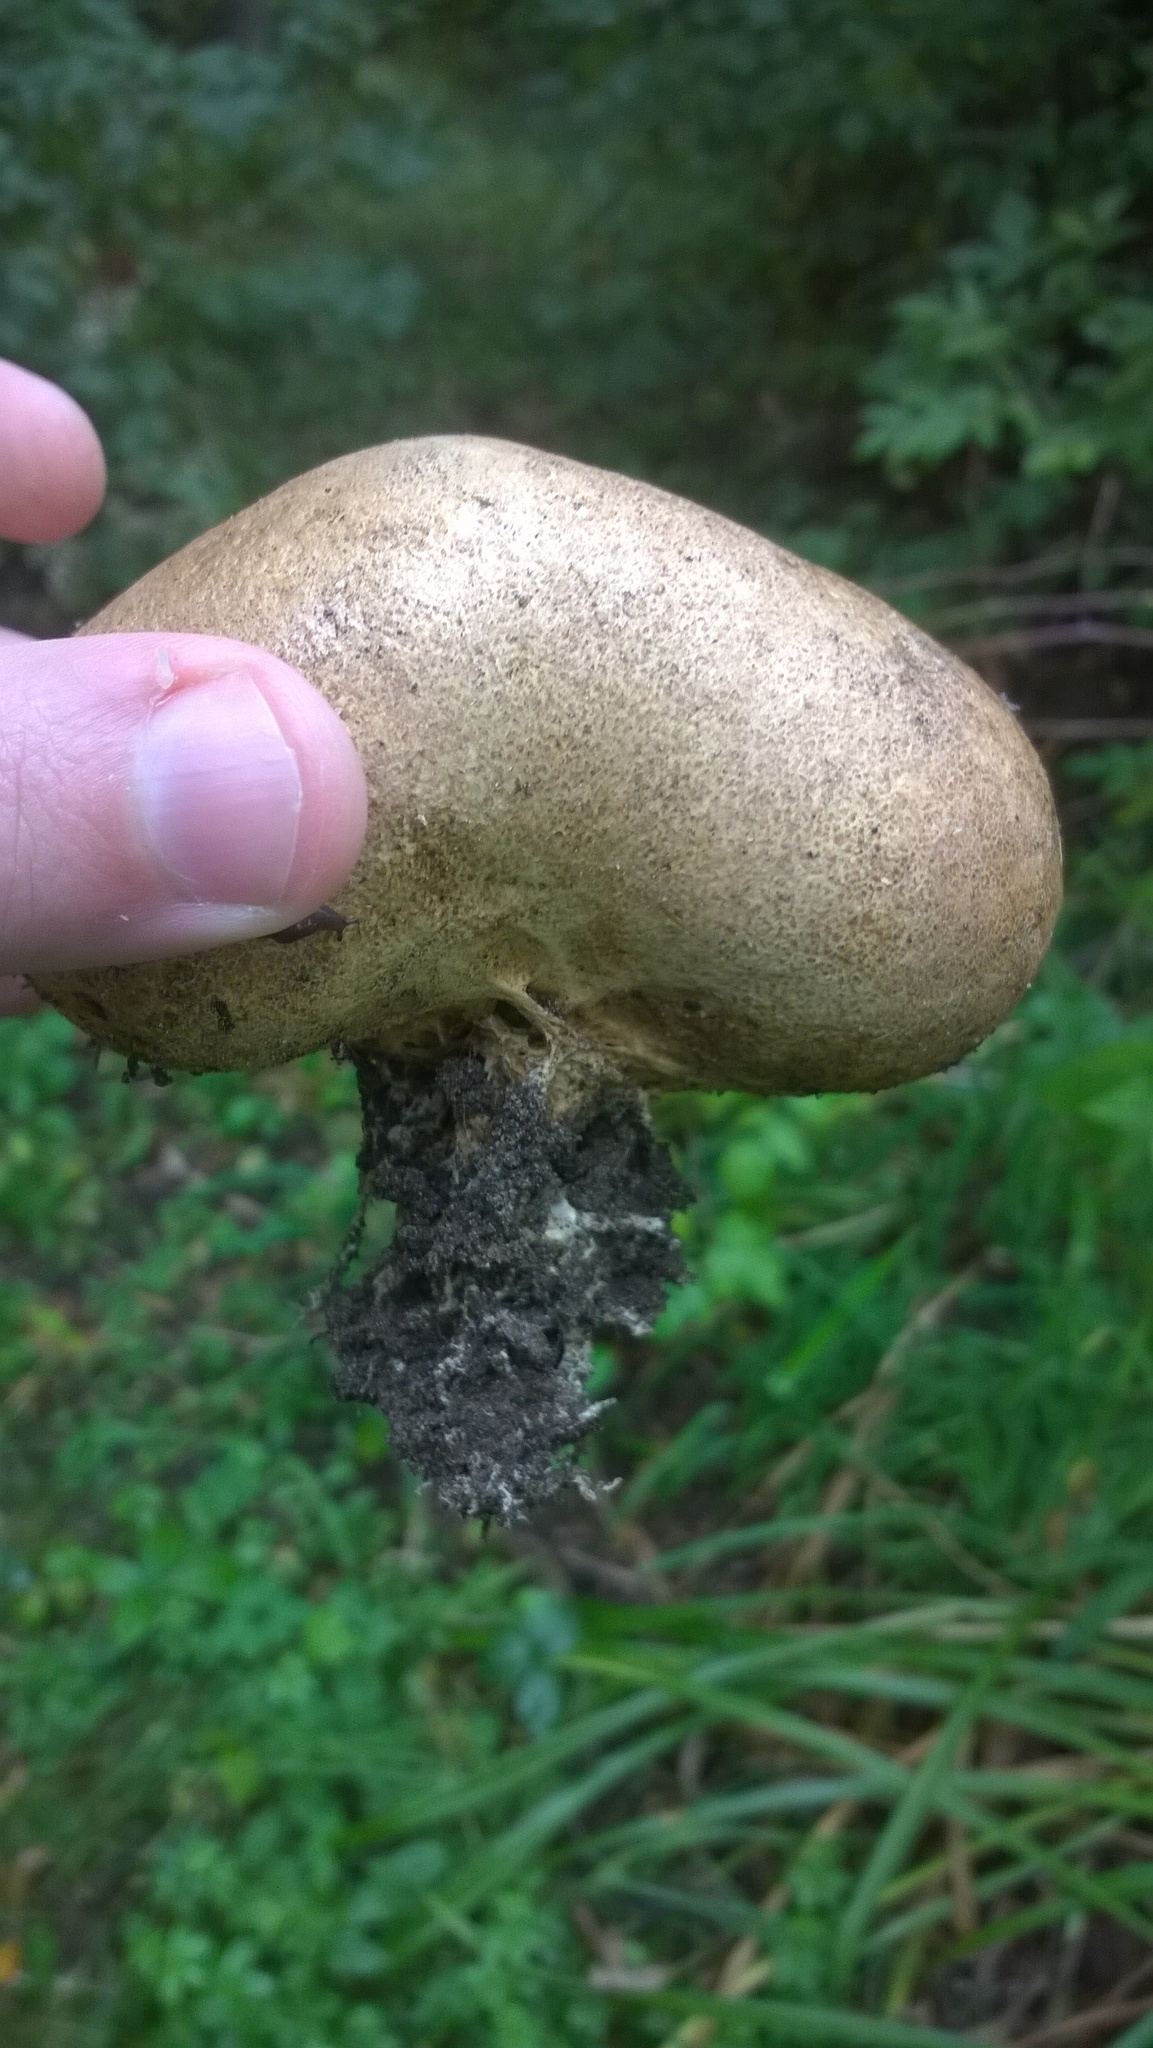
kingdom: Fungi
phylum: Basidiomycota
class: Agaricomycetes
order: Boletales
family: Sclerodermataceae
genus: Scleroderma
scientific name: Scleroderma citrinum
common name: Common earthball
